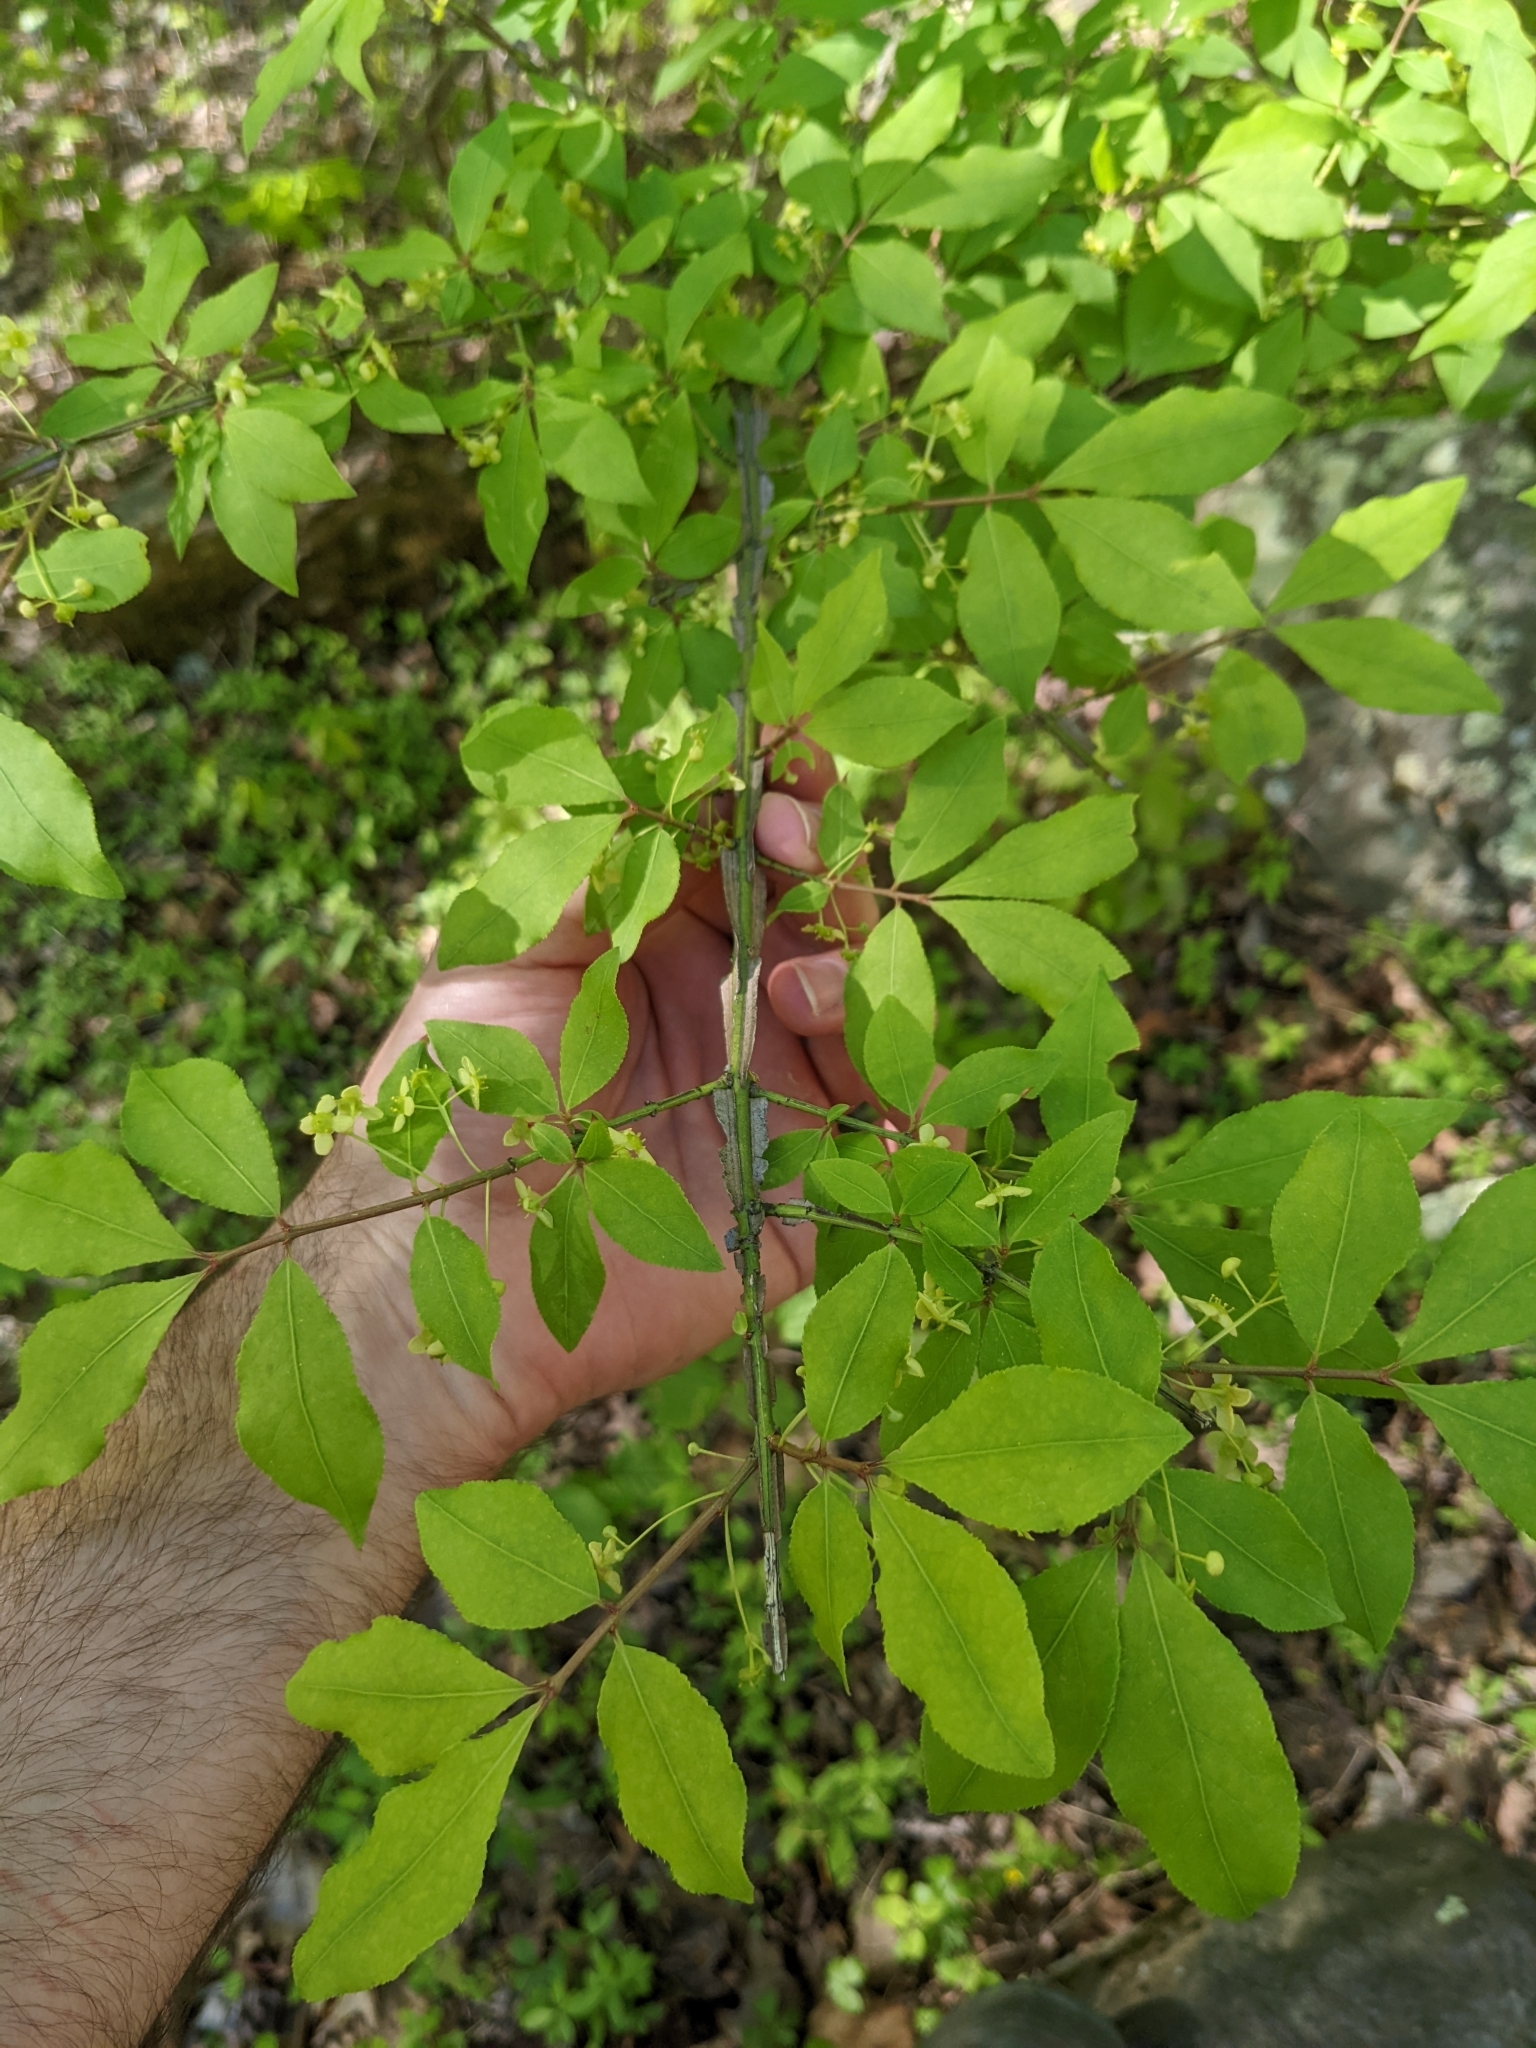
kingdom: Plantae
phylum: Tracheophyta
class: Magnoliopsida
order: Celastrales
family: Celastraceae
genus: Euonymus
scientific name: Euonymus alatus
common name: Winged euonymus
